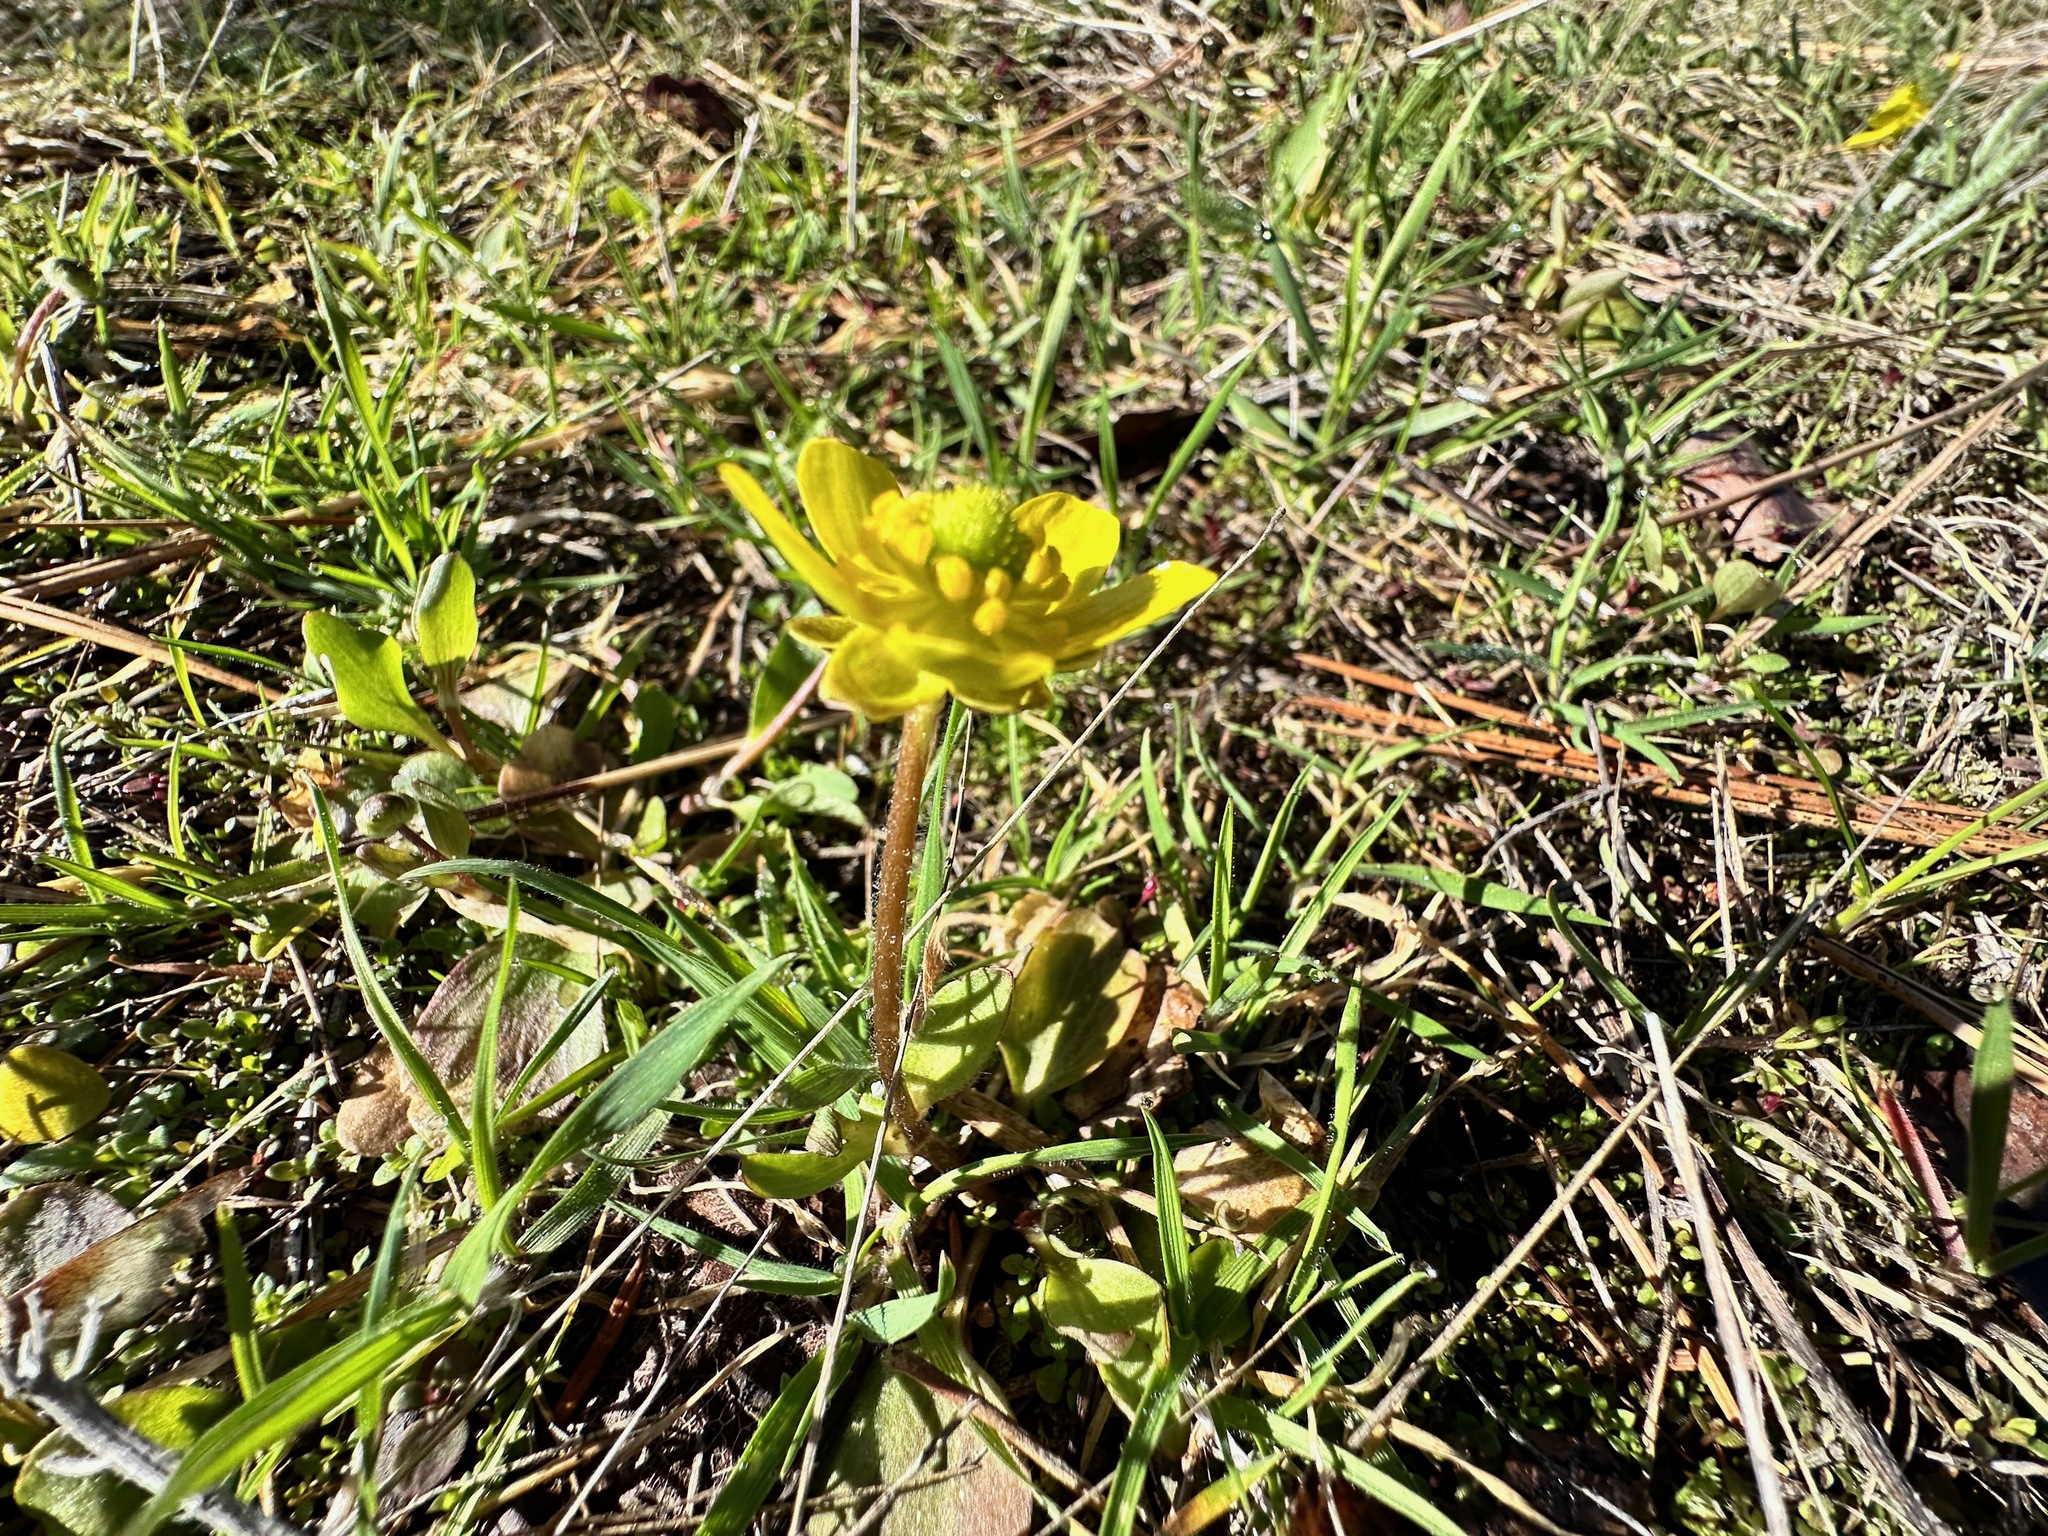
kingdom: Plantae
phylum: Tracheophyta
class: Magnoliopsida
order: Ranunculales
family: Ranunculaceae
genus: Ranunculus
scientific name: Ranunculus glaberrimus
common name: Sagebrush buttercup
